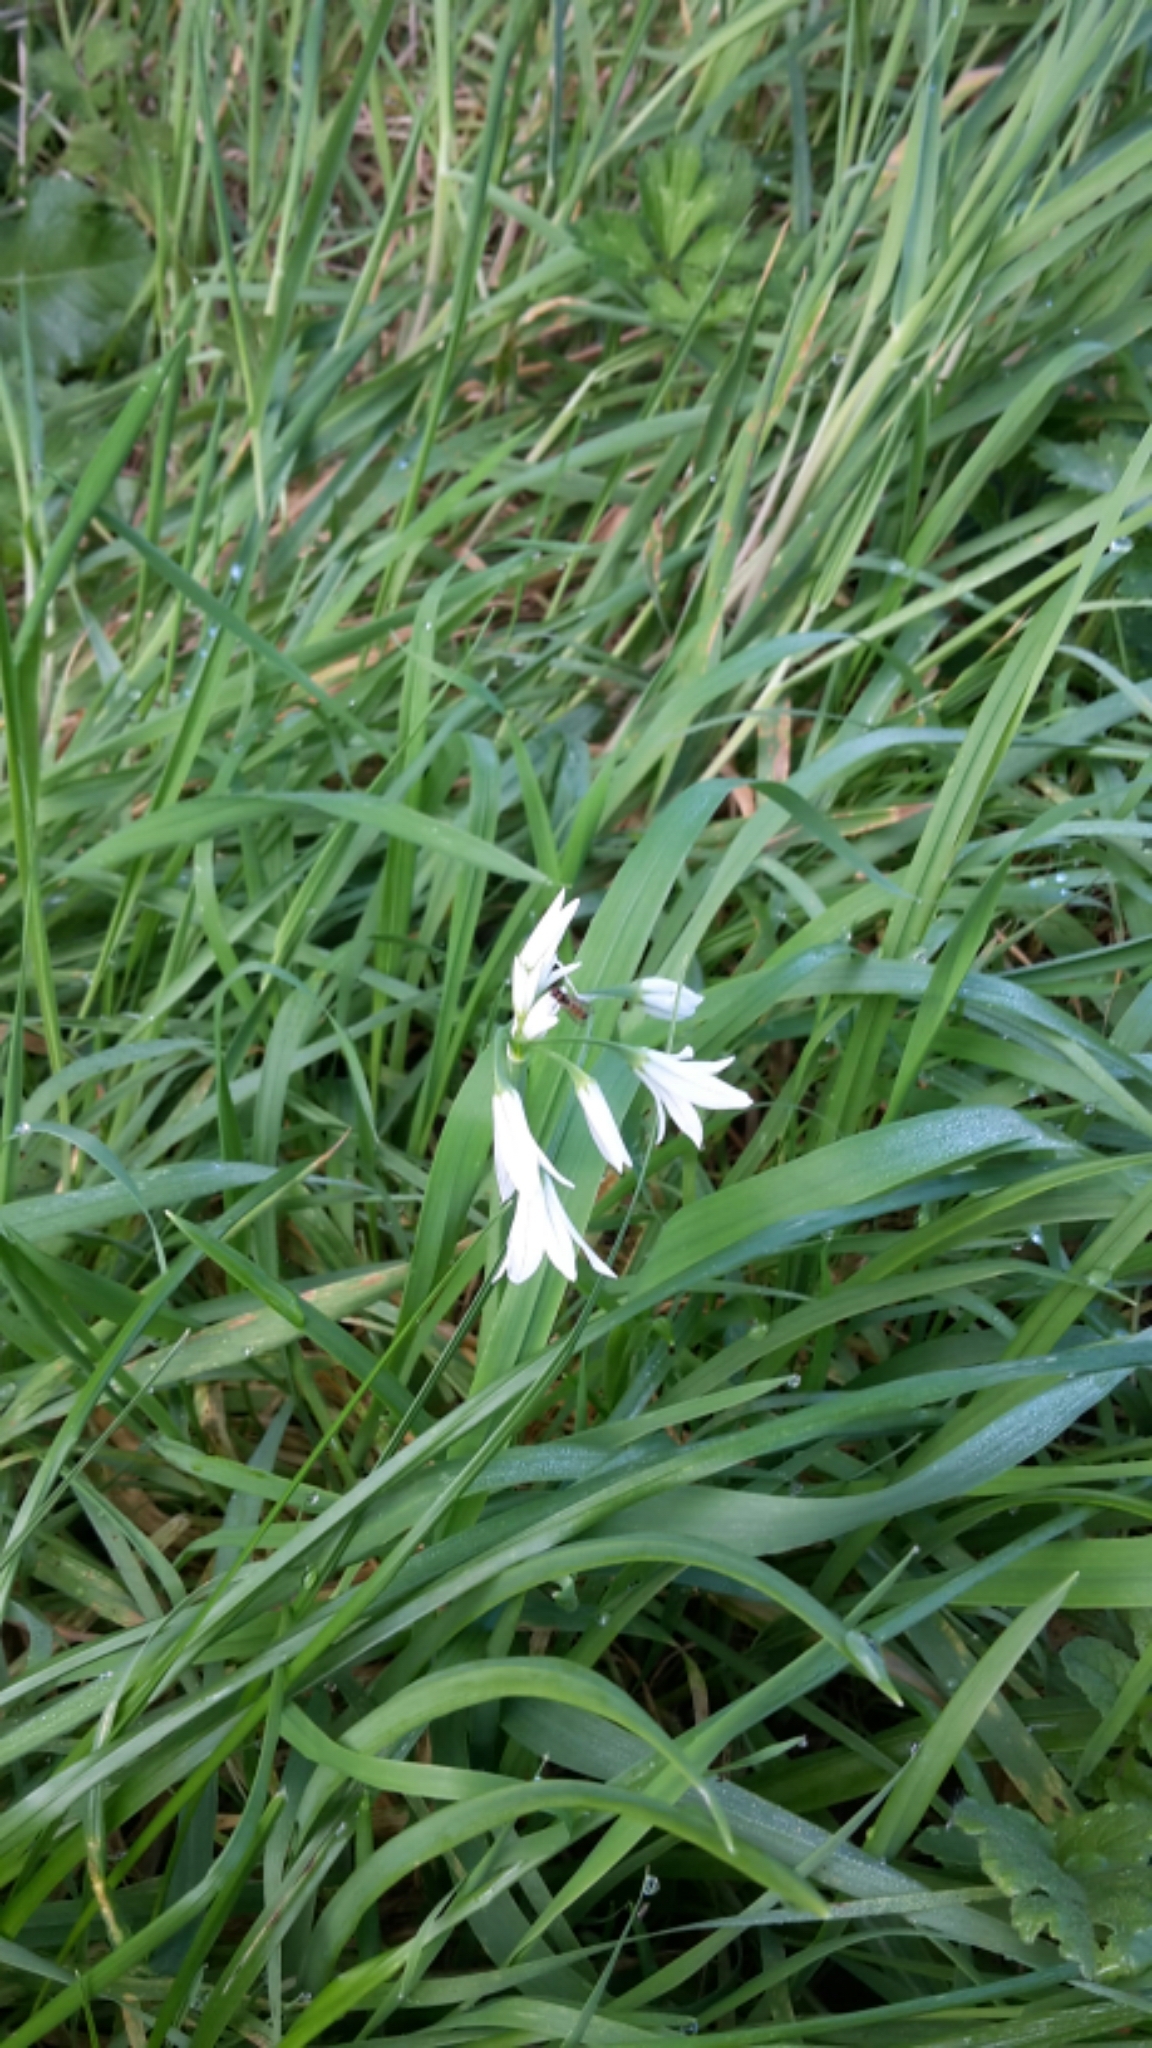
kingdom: Plantae
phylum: Tracheophyta
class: Liliopsida
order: Asparagales
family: Amaryllidaceae
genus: Allium
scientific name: Allium triquetrum
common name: Three-cornered garlic
